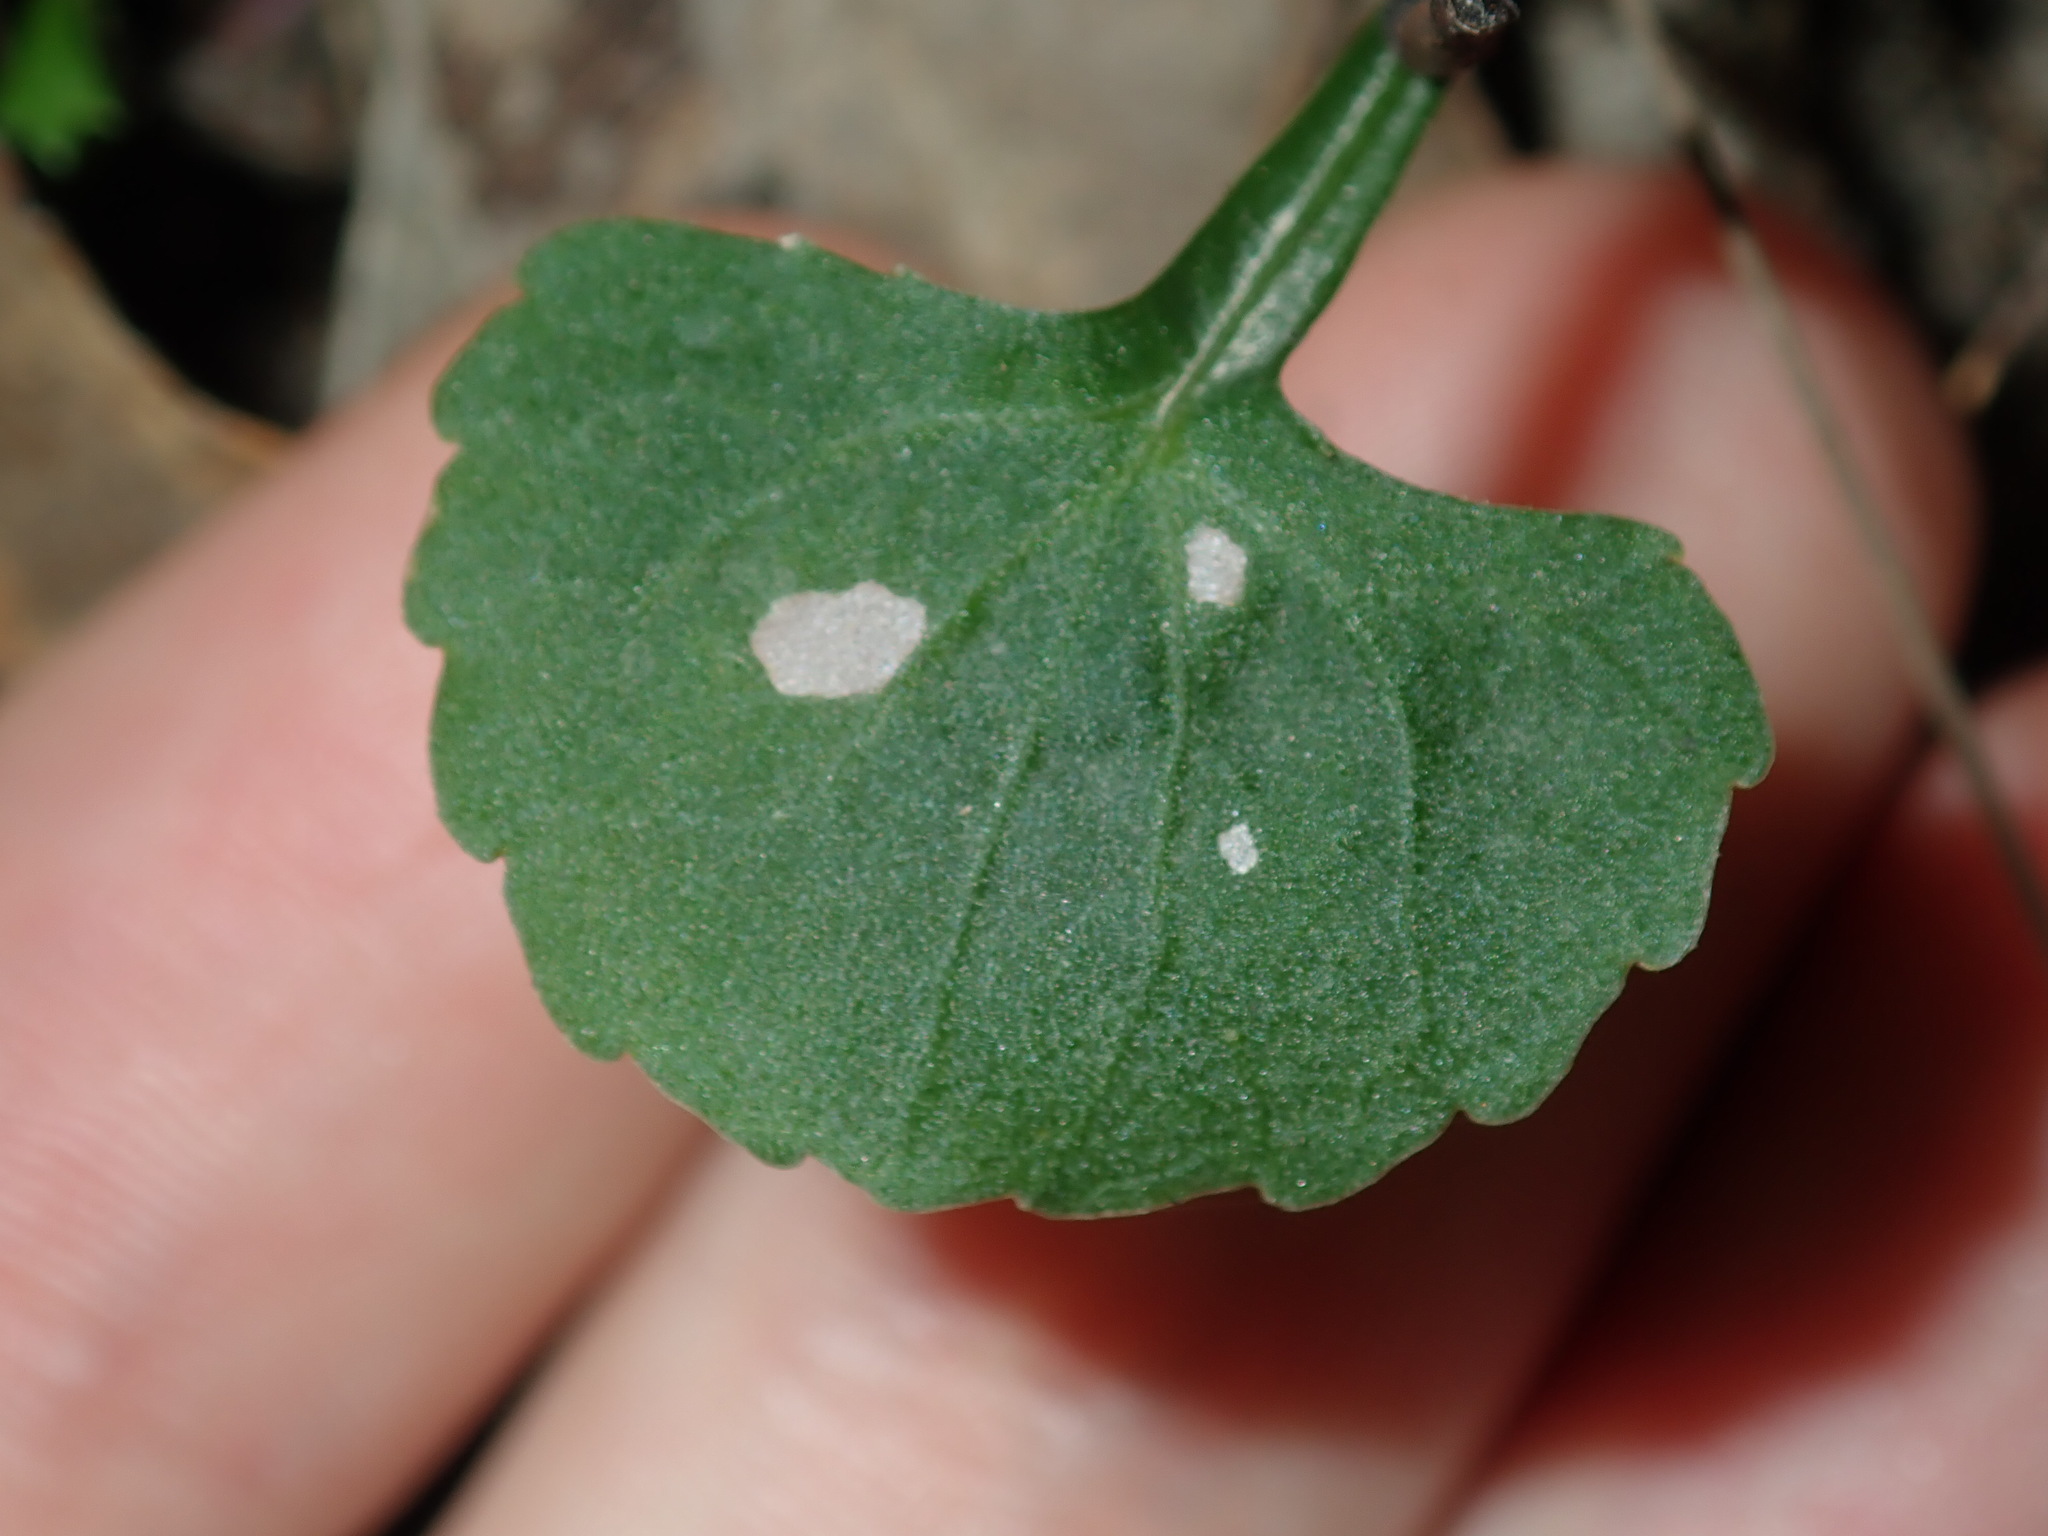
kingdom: Plantae
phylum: Tracheophyta
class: Magnoliopsida
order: Malpighiales
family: Violaceae
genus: Viola
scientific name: Viola silicestris
